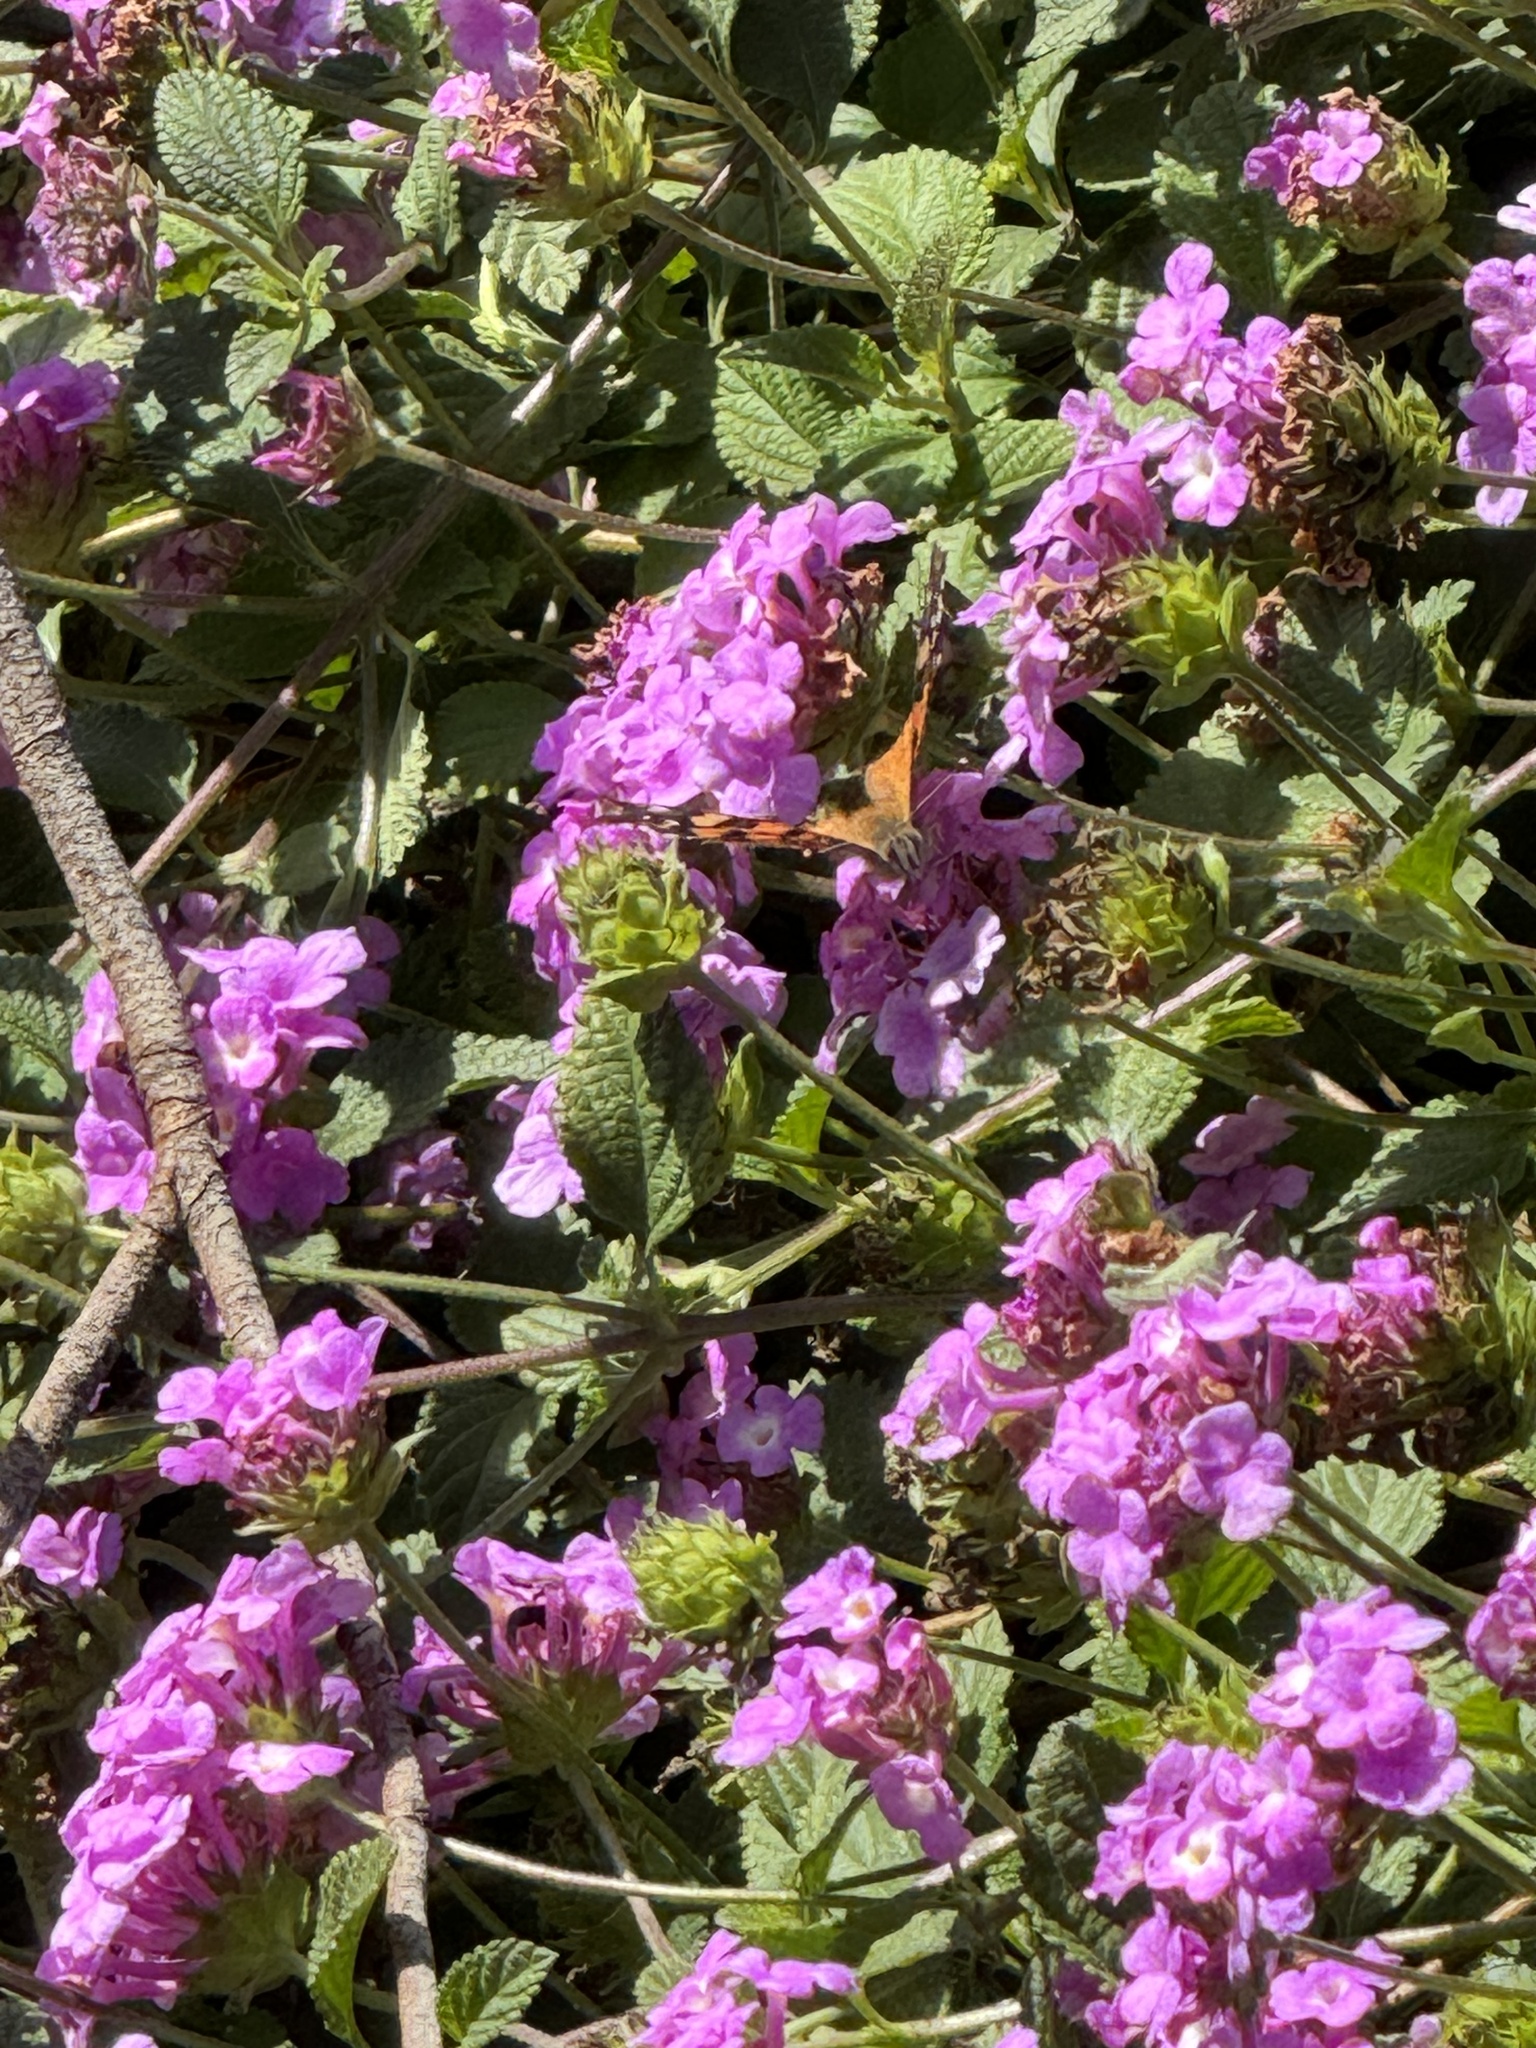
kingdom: Animalia
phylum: Arthropoda
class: Insecta
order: Lepidoptera
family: Nymphalidae
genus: Vanessa
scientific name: Vanessa annabella
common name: West coast lady
